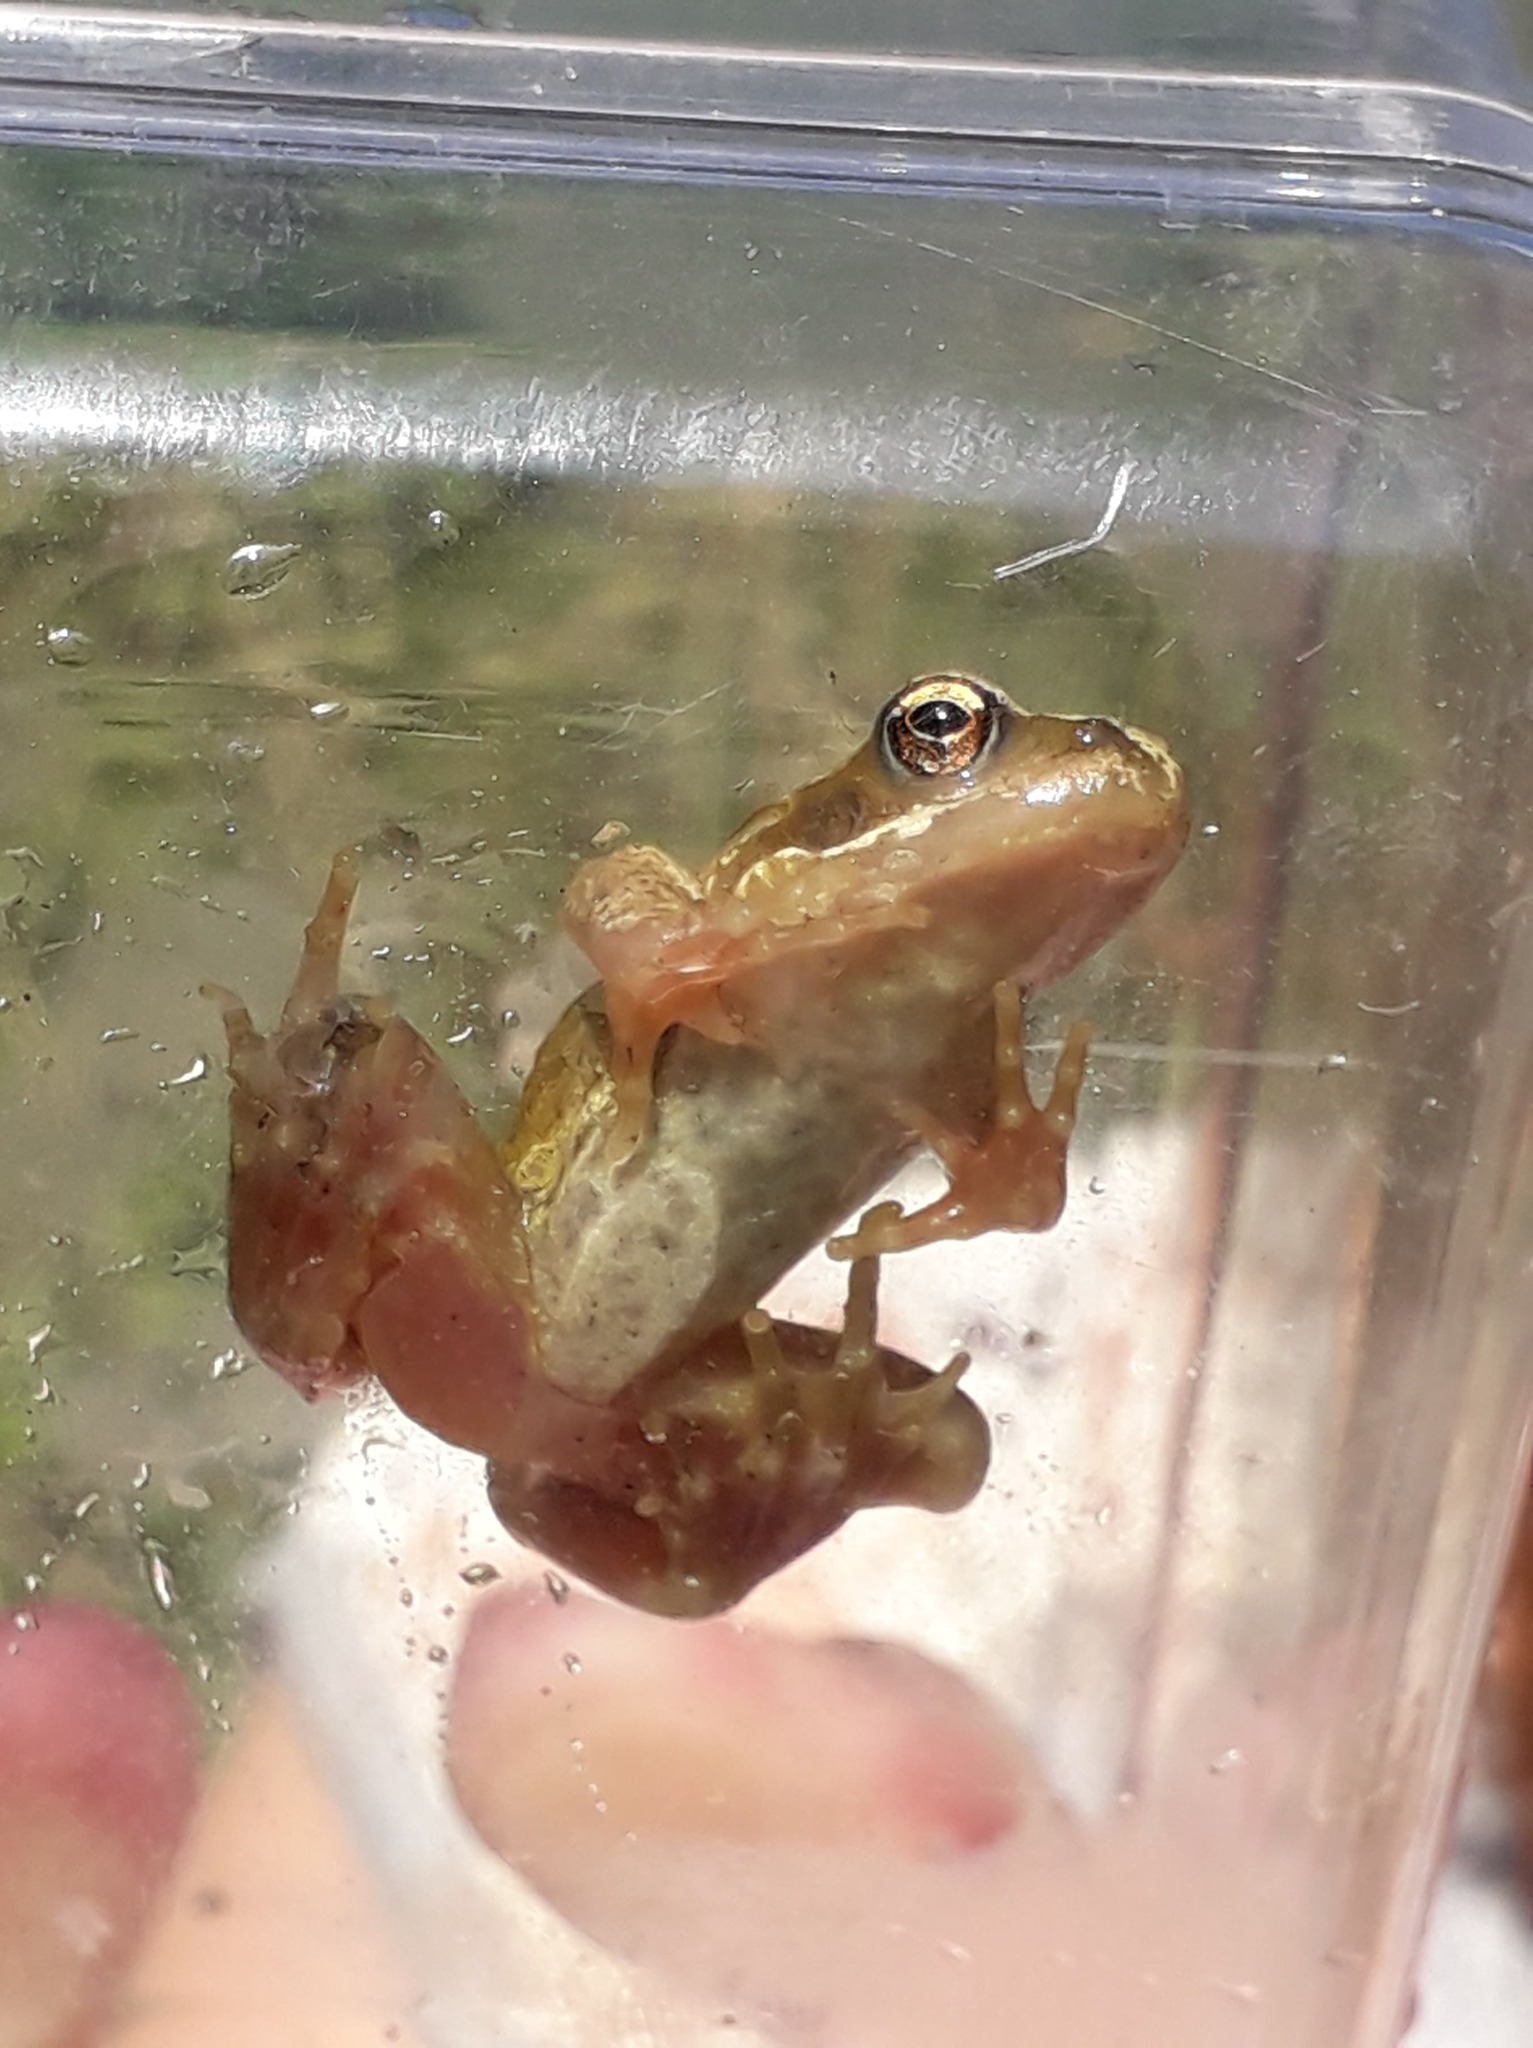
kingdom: Animalia
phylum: Chordata
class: Amphibia
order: Anura
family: Ranidae
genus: Rana
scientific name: Rana temporaria
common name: Common frog
